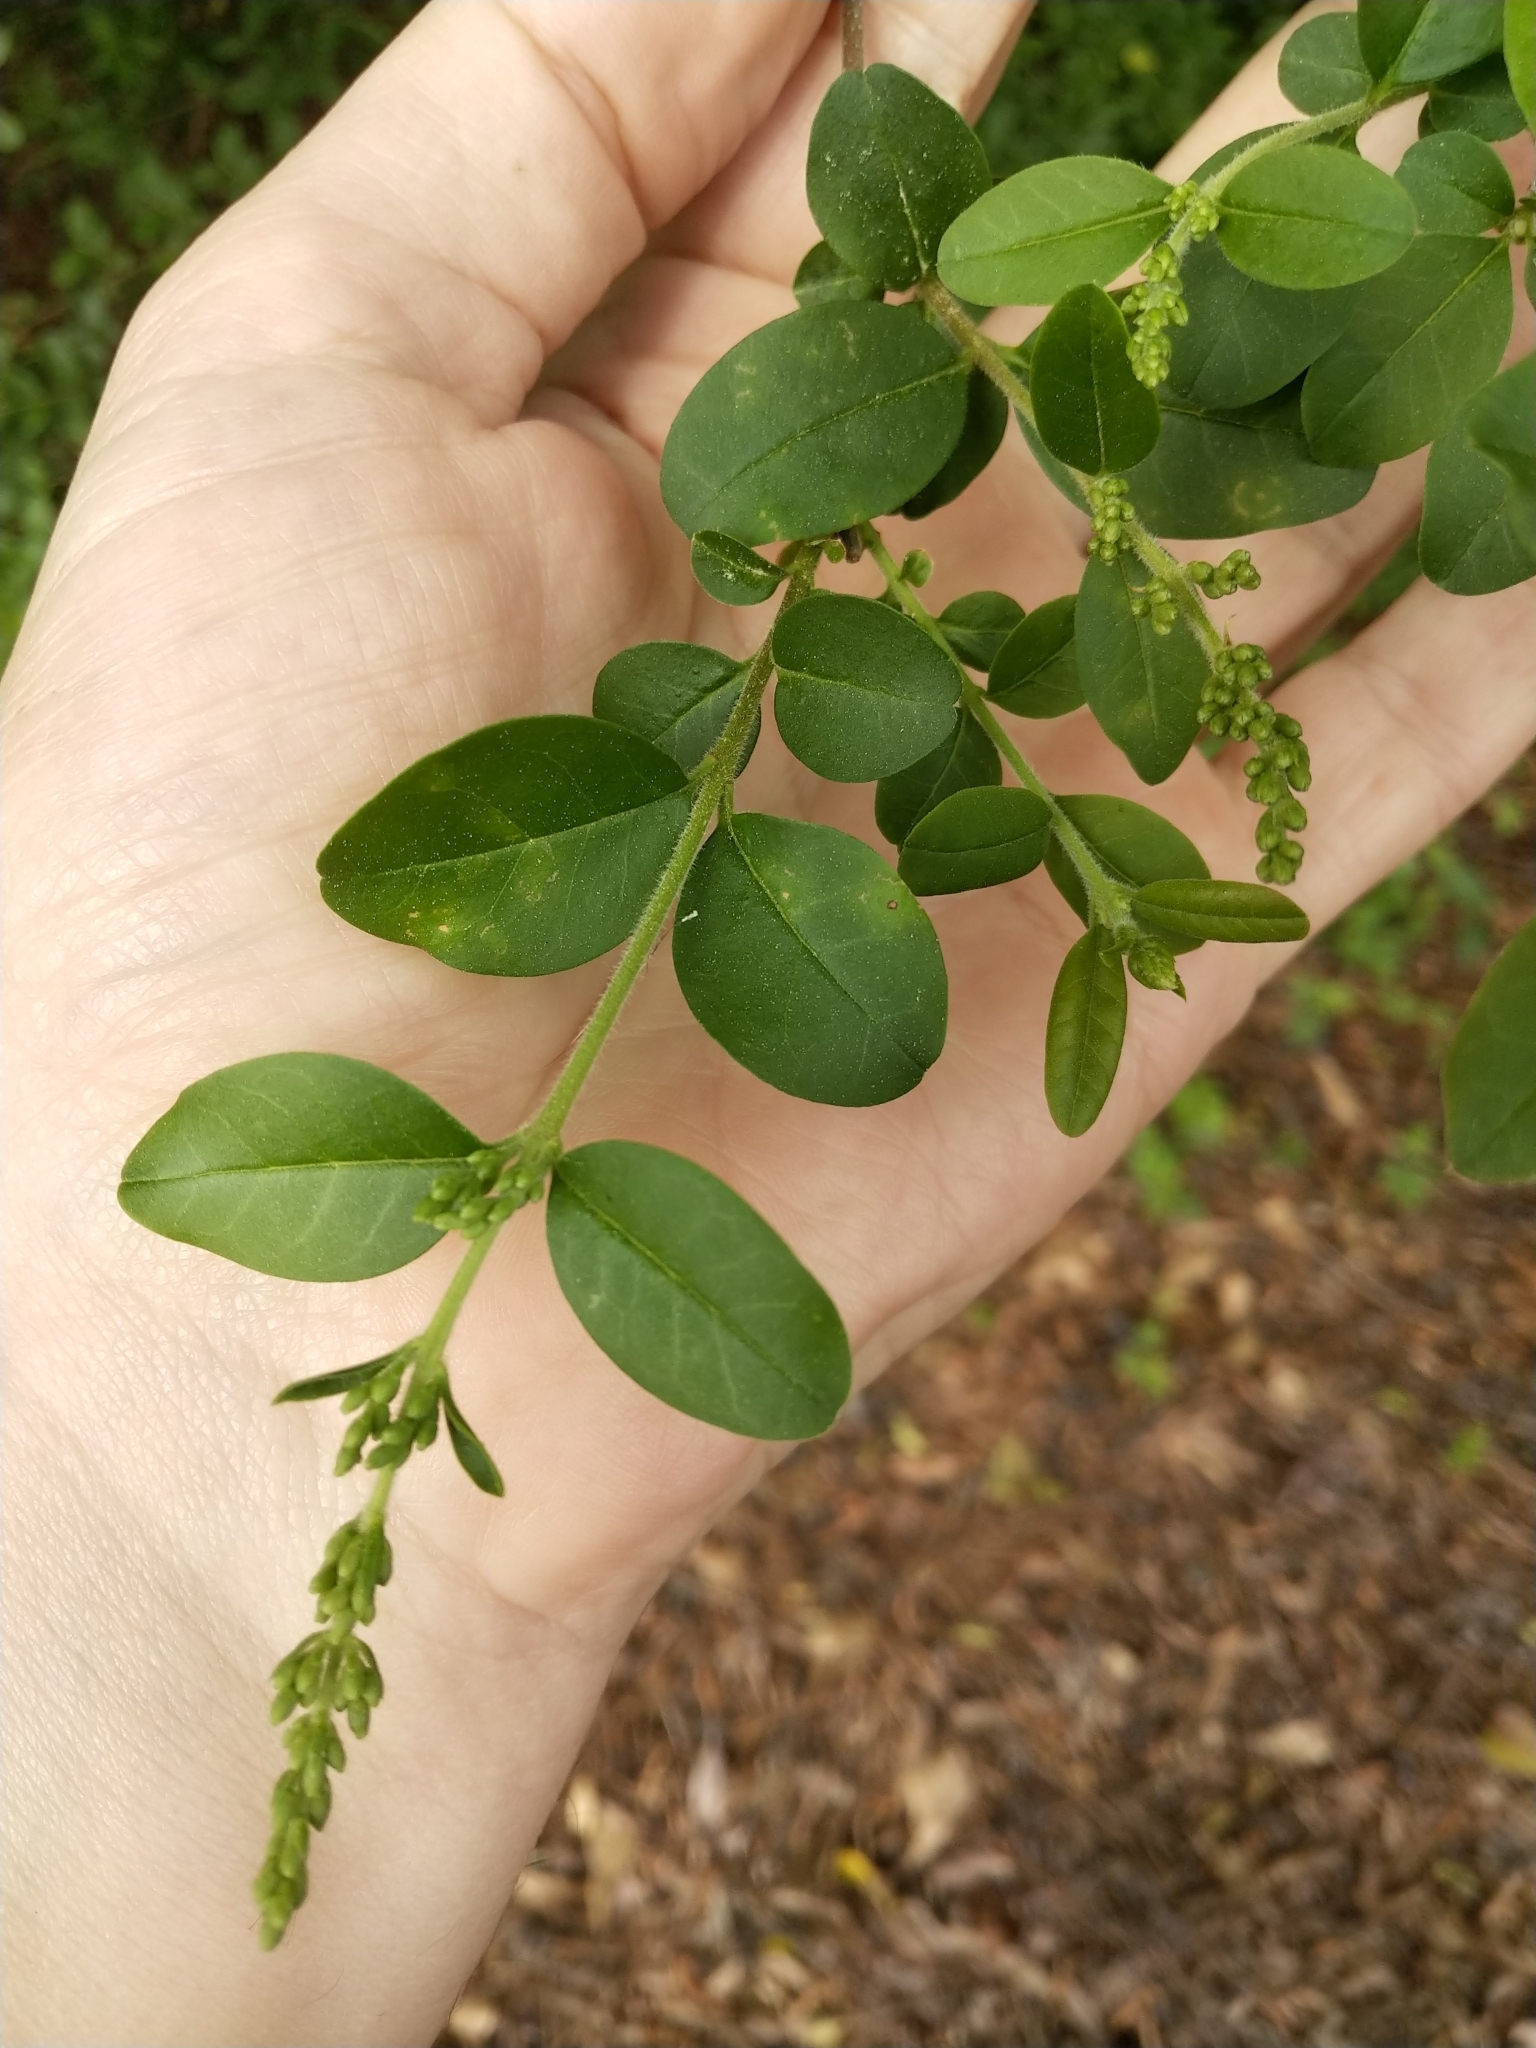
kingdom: Plantae
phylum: Tracheophyta
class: Magnoliopsida
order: Lamiales
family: Oleaceae
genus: Ligustrum
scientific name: Ligustrum sinense
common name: Chinese privet
